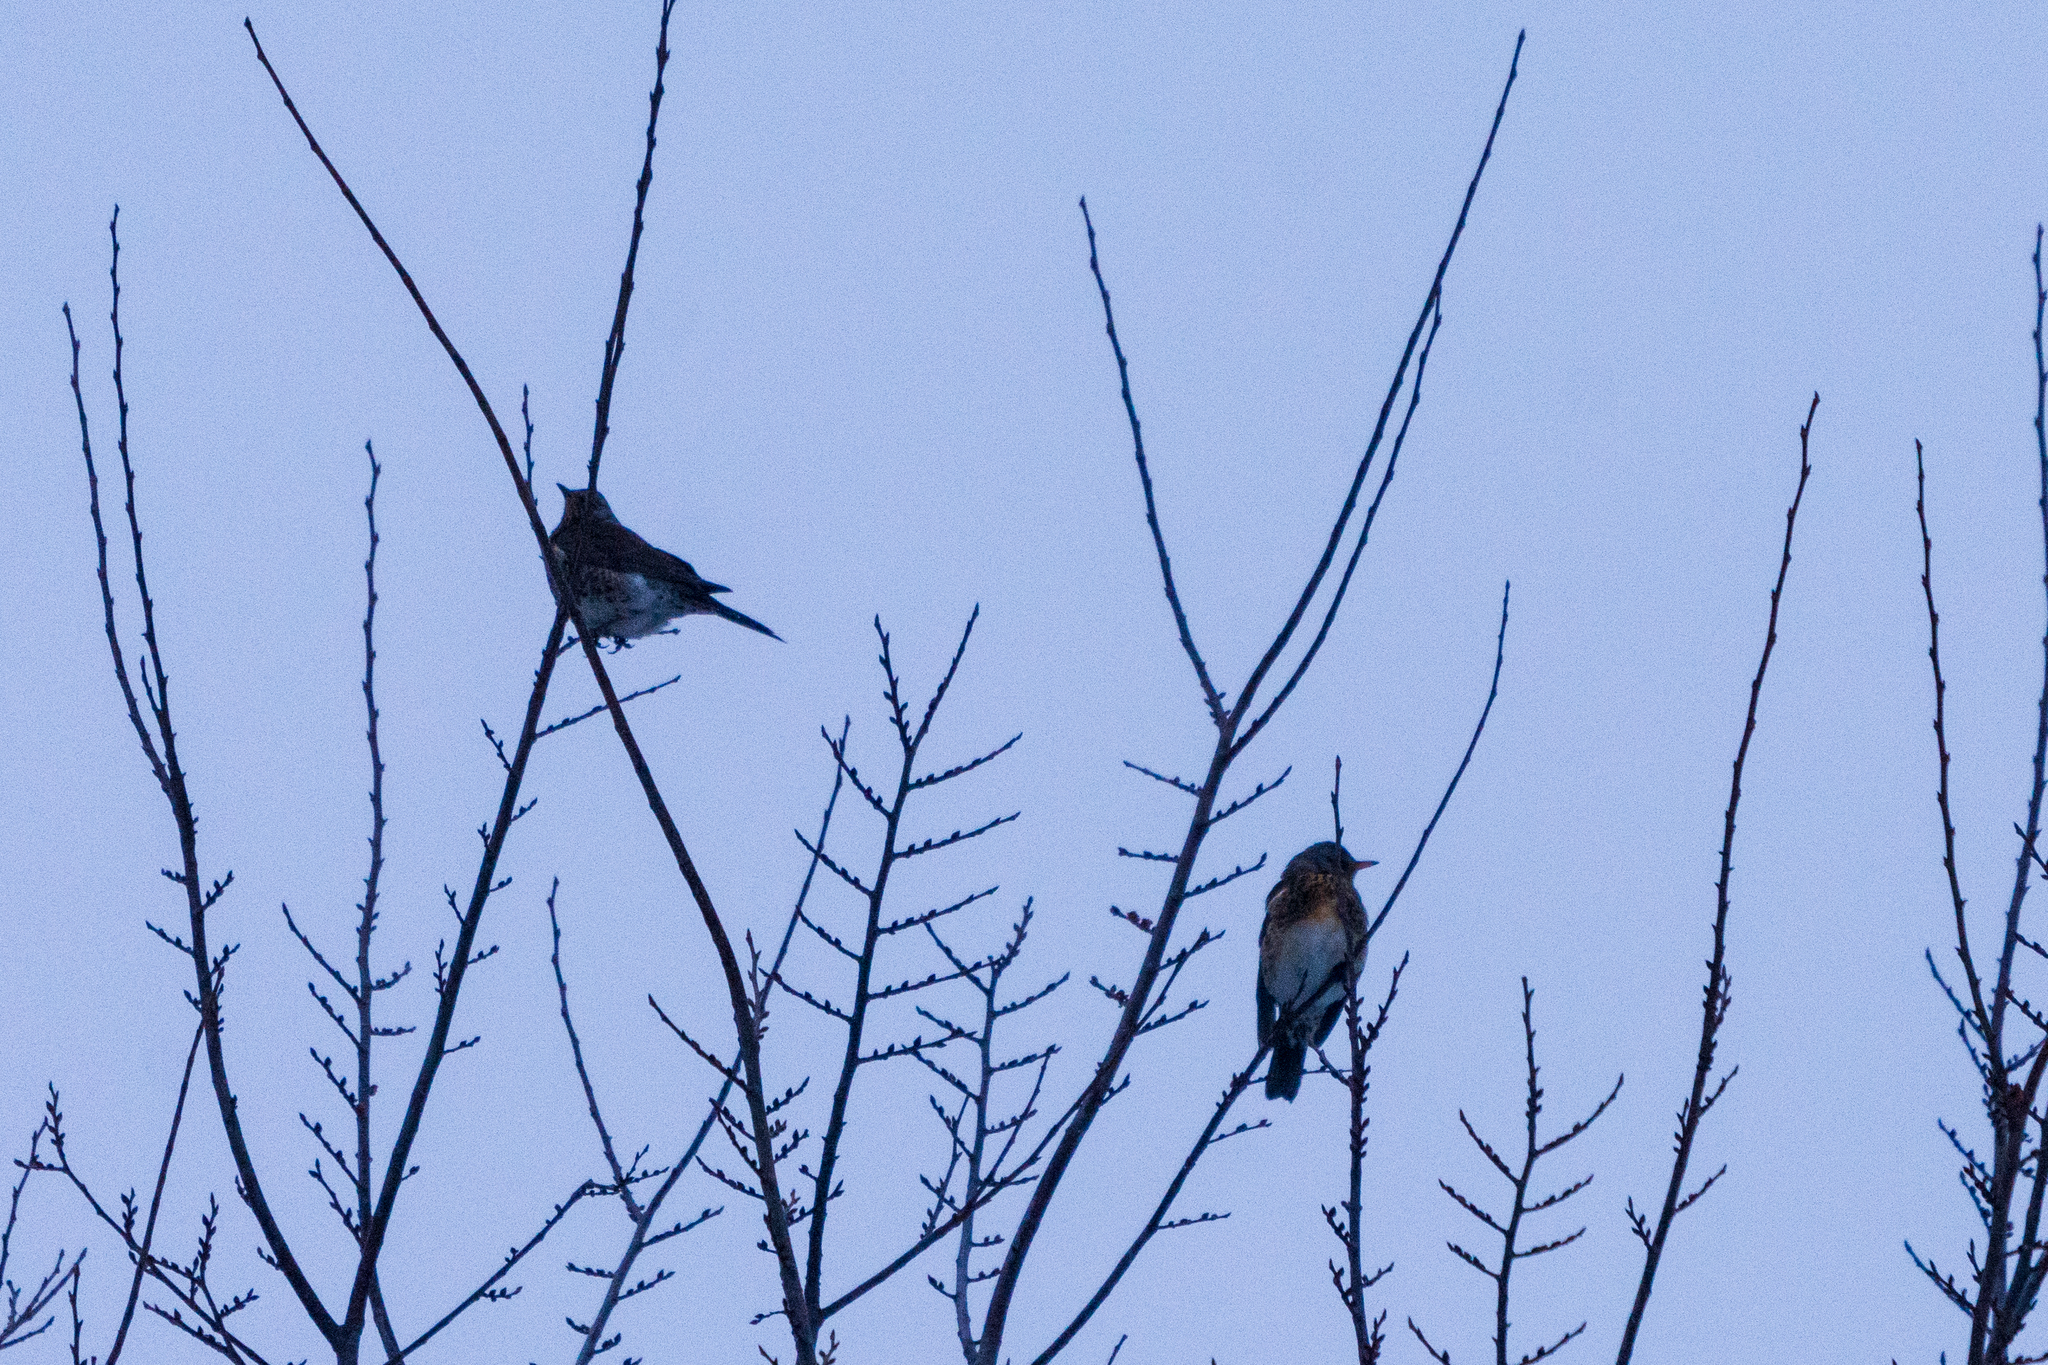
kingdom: Animalia
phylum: Chordata
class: Aves
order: Passeriformes
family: Turdidae
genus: Turdus
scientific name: Turdus pilaris
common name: Fieldfare
